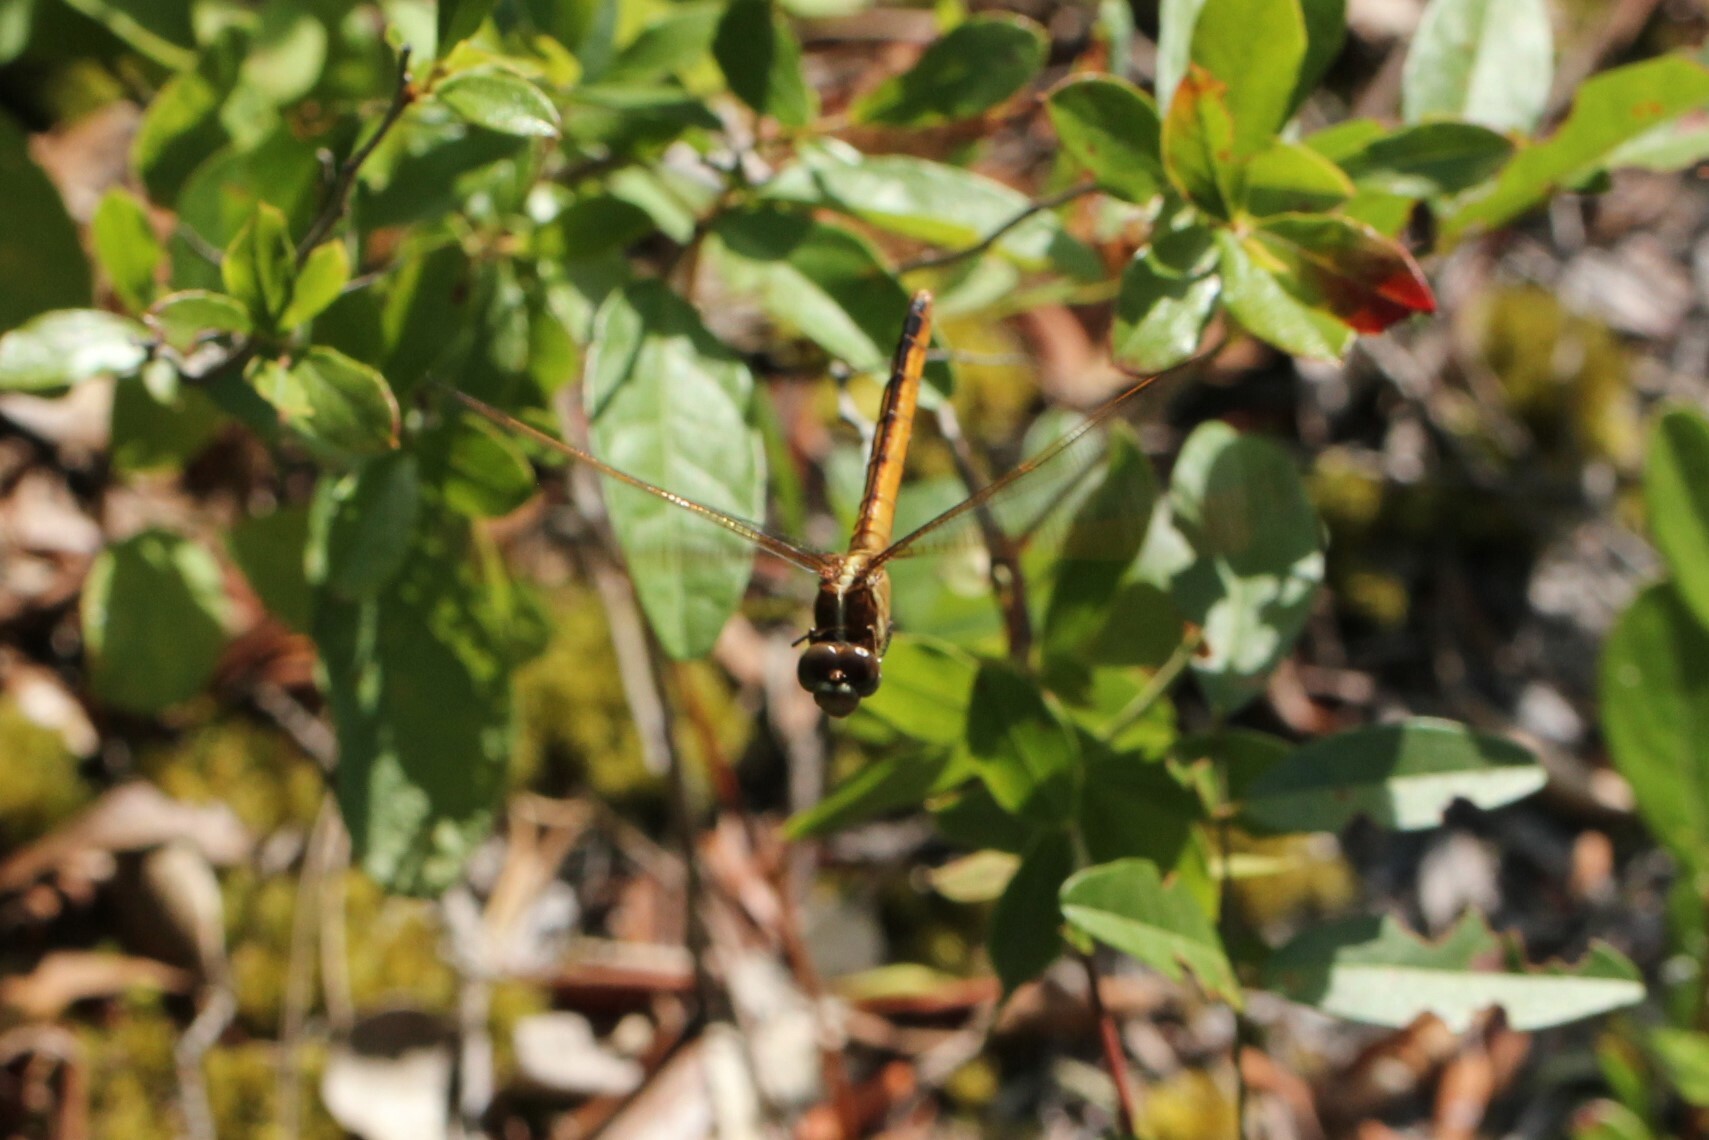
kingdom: Animalia
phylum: Arthropoda
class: Insecta
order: Odonata
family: Libellulidae
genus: Libellula
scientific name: Libellula auripennis
